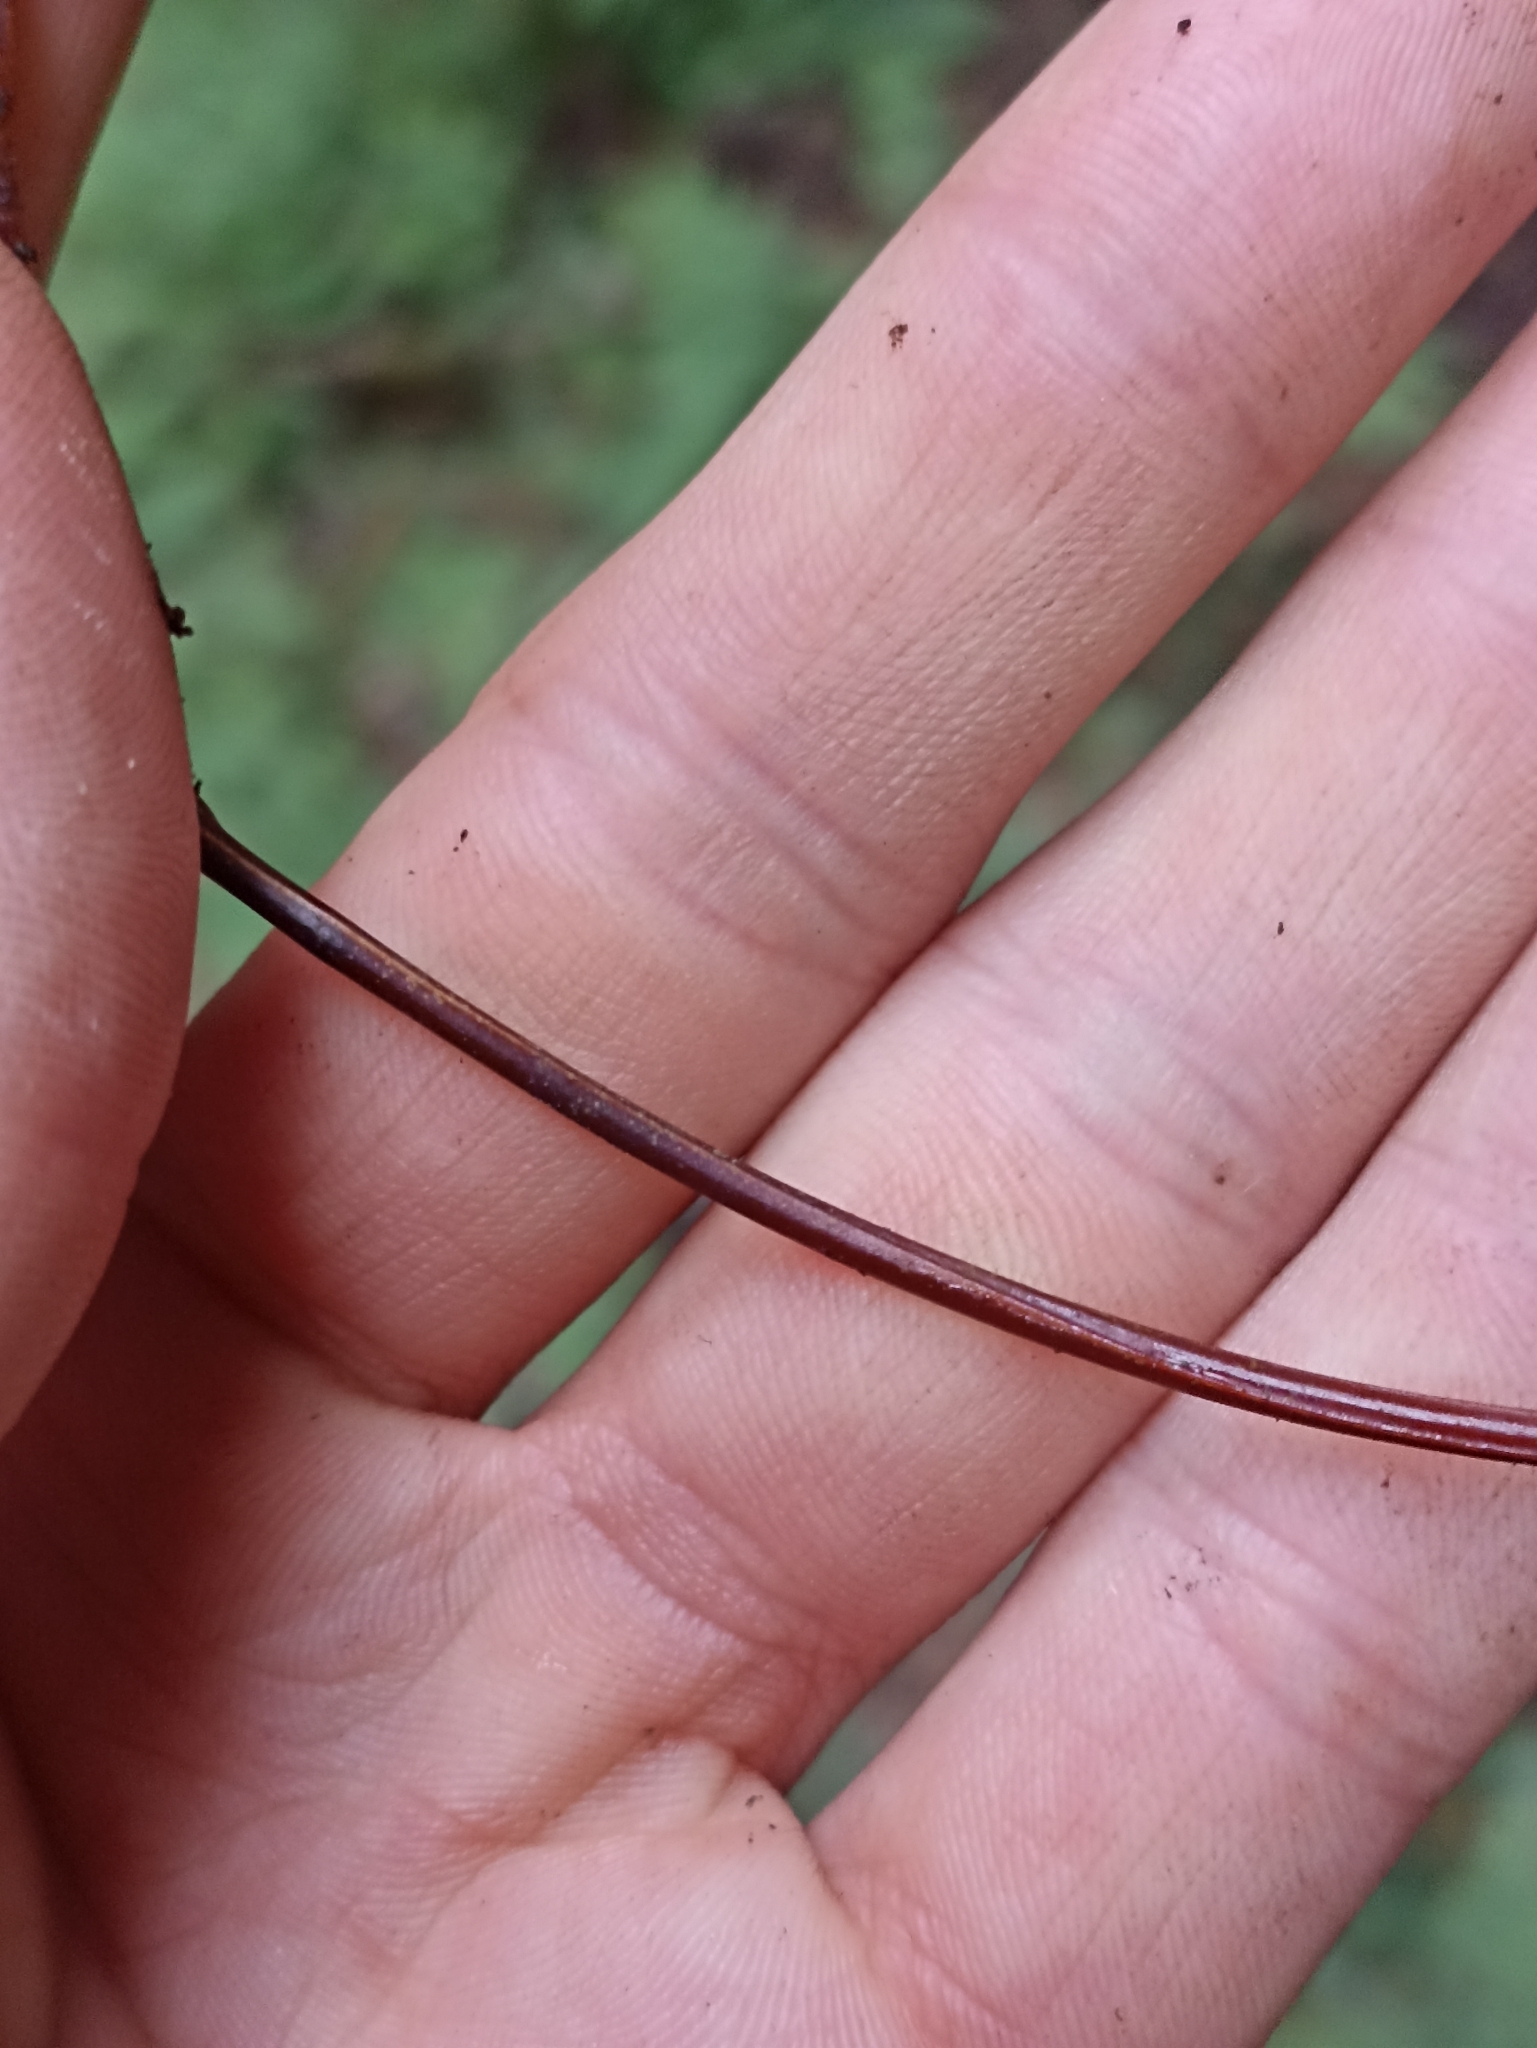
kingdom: Plantae
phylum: Tracheophyta
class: Polypodiopsida
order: Polypodiales
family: Polypodiaceae
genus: Lecanopteris
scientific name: Lecanopteris pustulata
